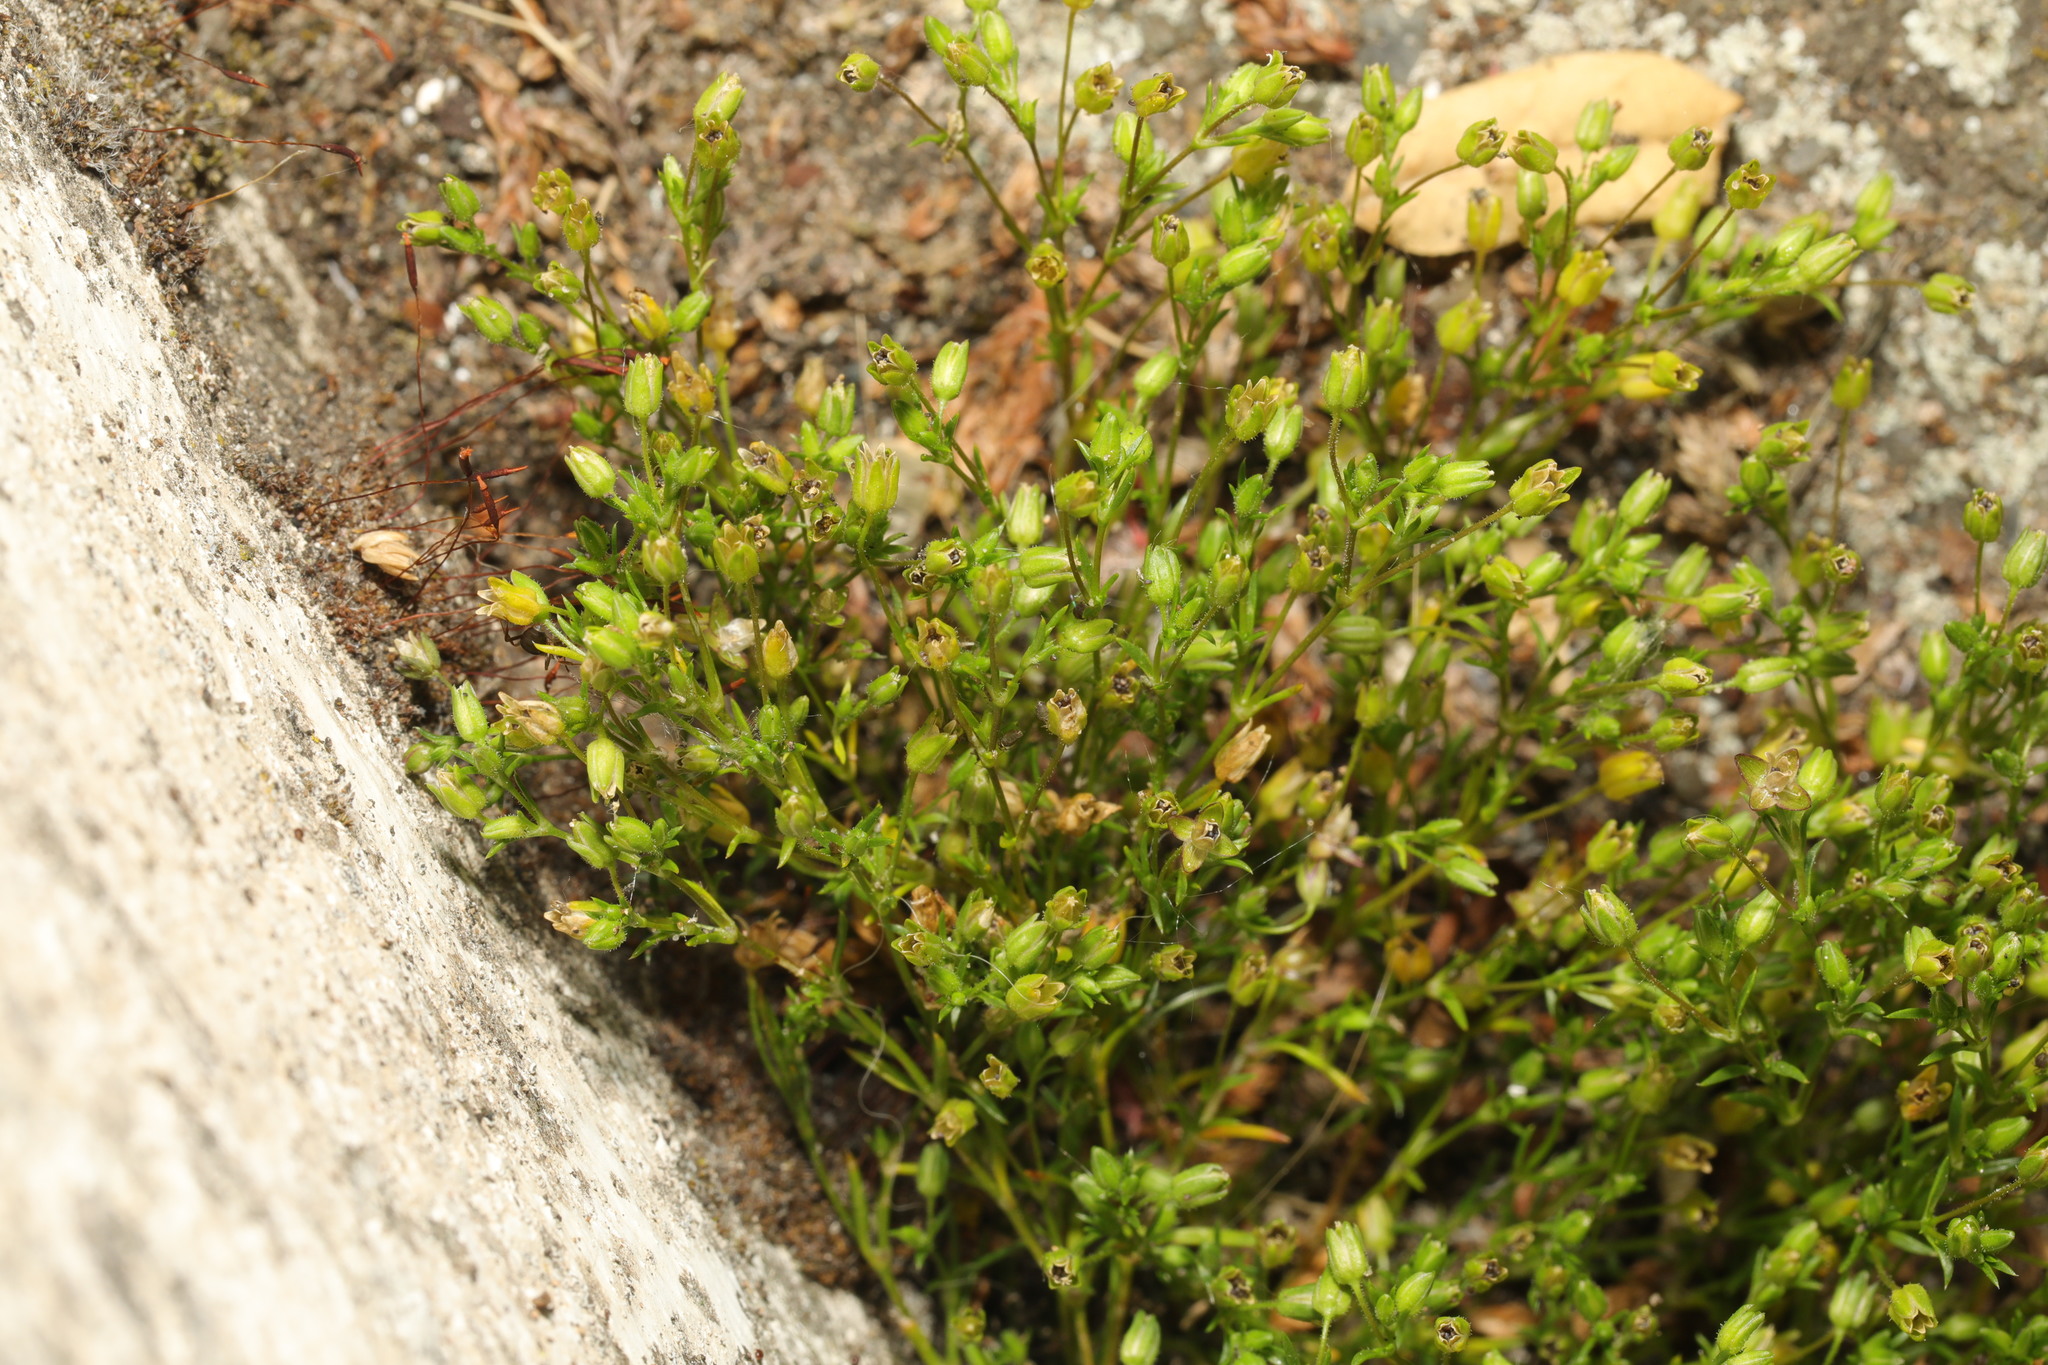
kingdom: Plantae
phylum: Tracheophyta
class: Magnoliopsida
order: Caryophyllales
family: Caryophyllaceae
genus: Arenaria
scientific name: Arenaria serpyllifolia
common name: Thyme-leaved sandwort
